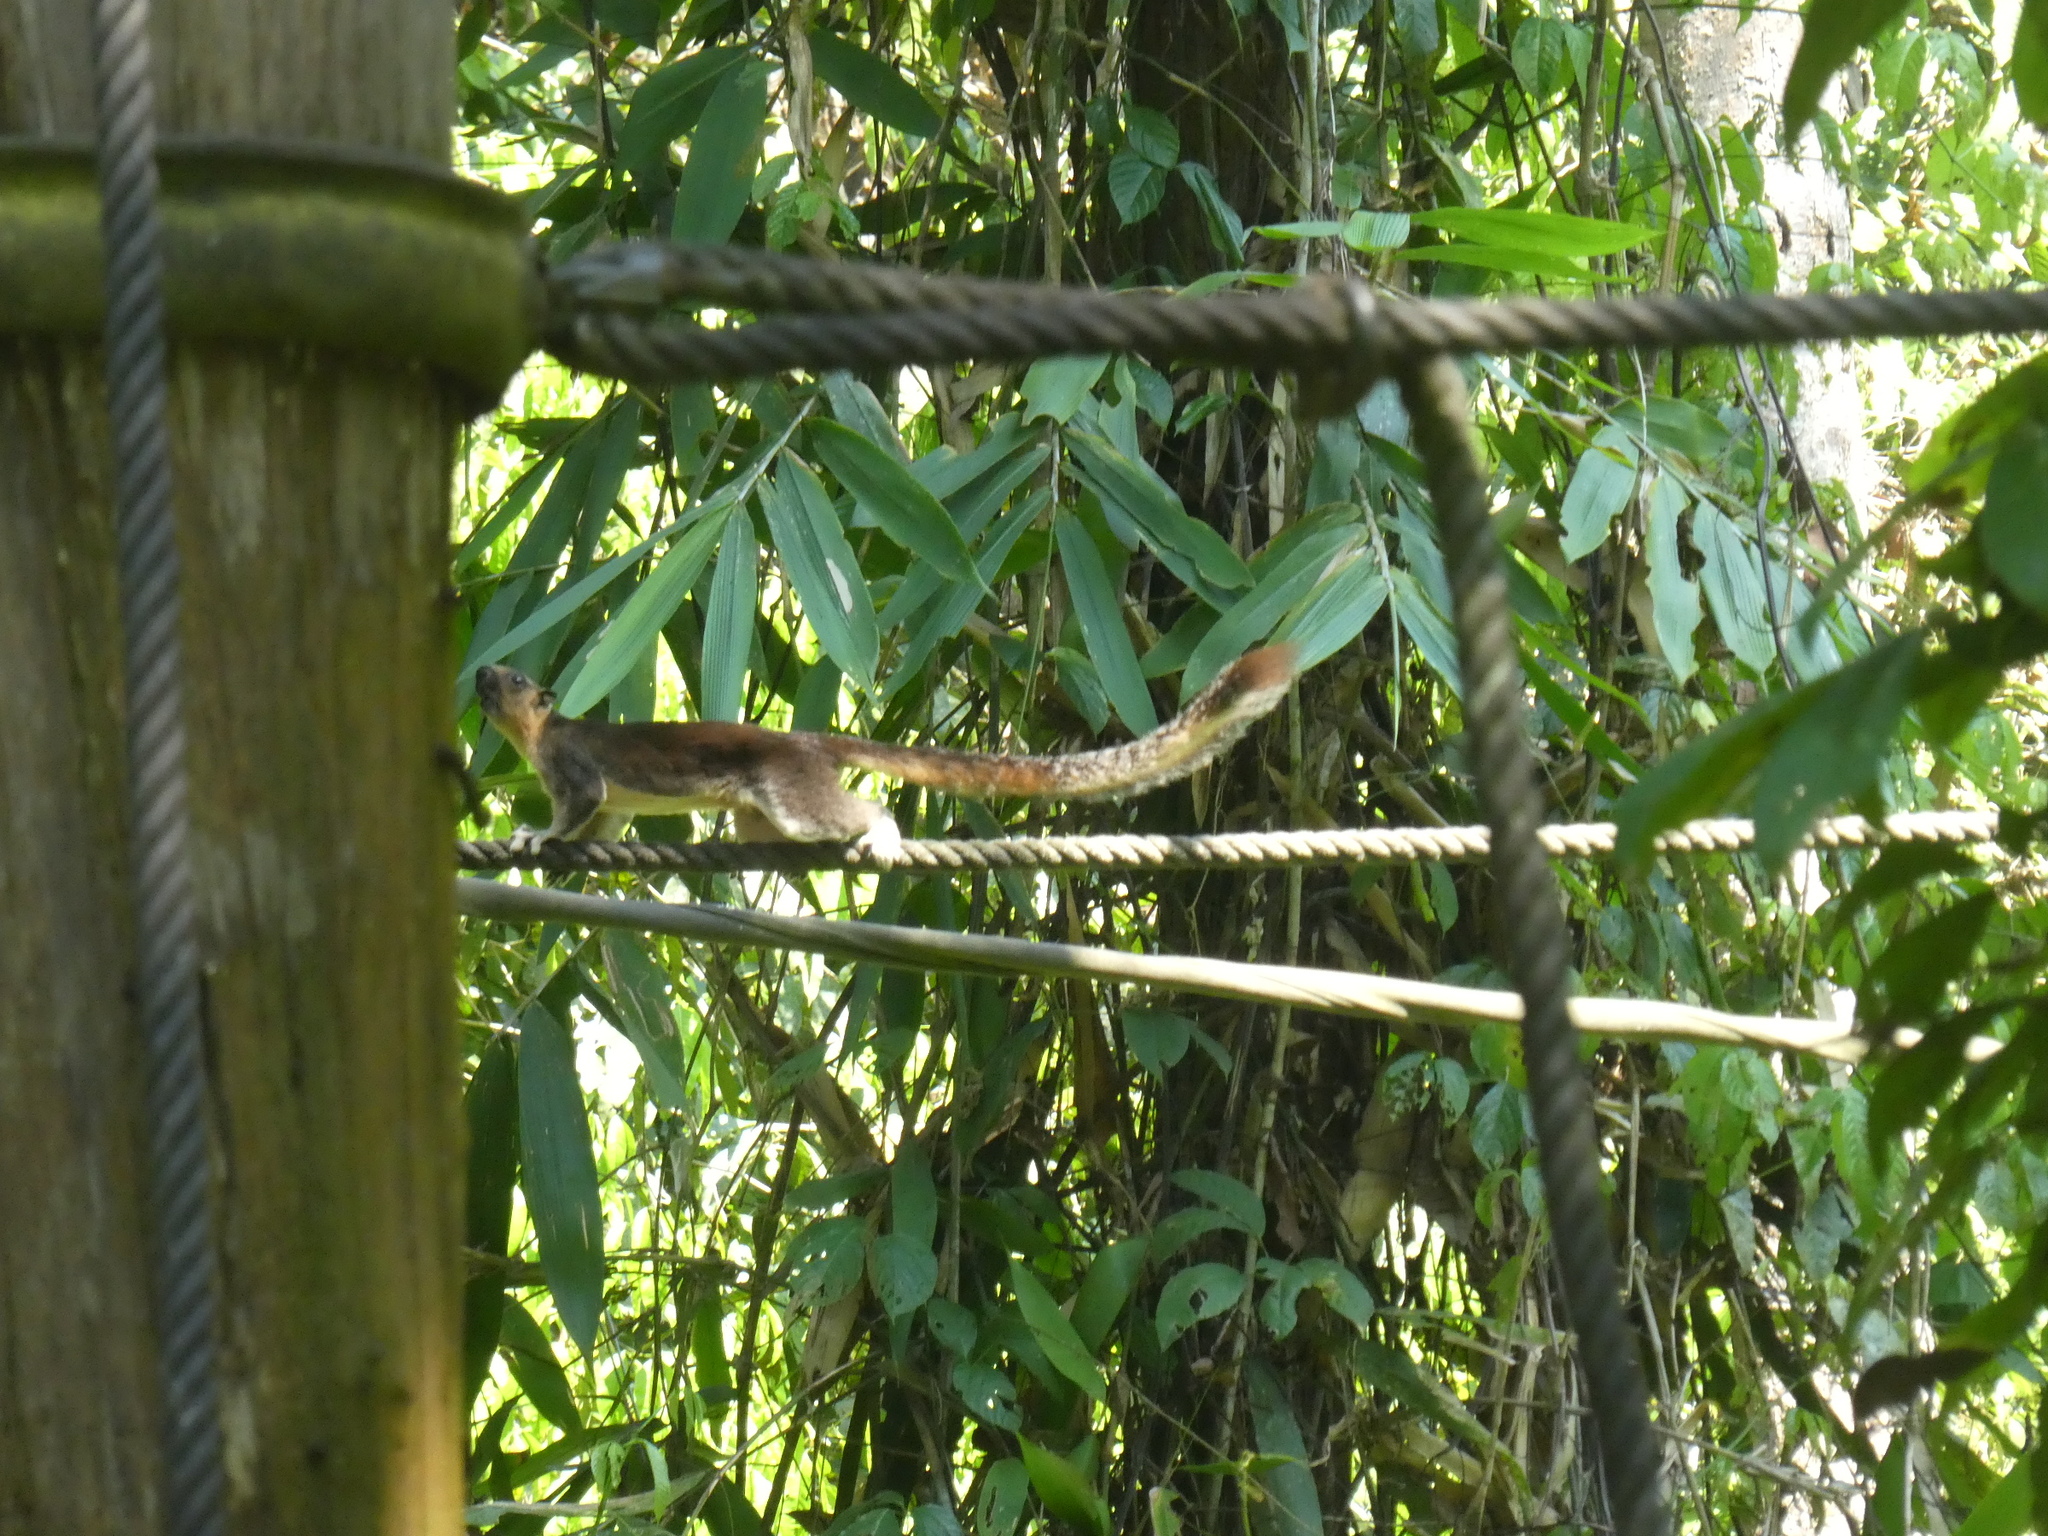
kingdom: Animalia
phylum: Chordata
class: Mammalia
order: Rodentia
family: Sciuridae
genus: Ratufa
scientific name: Ratufa affinis
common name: Pale giant squirrel
